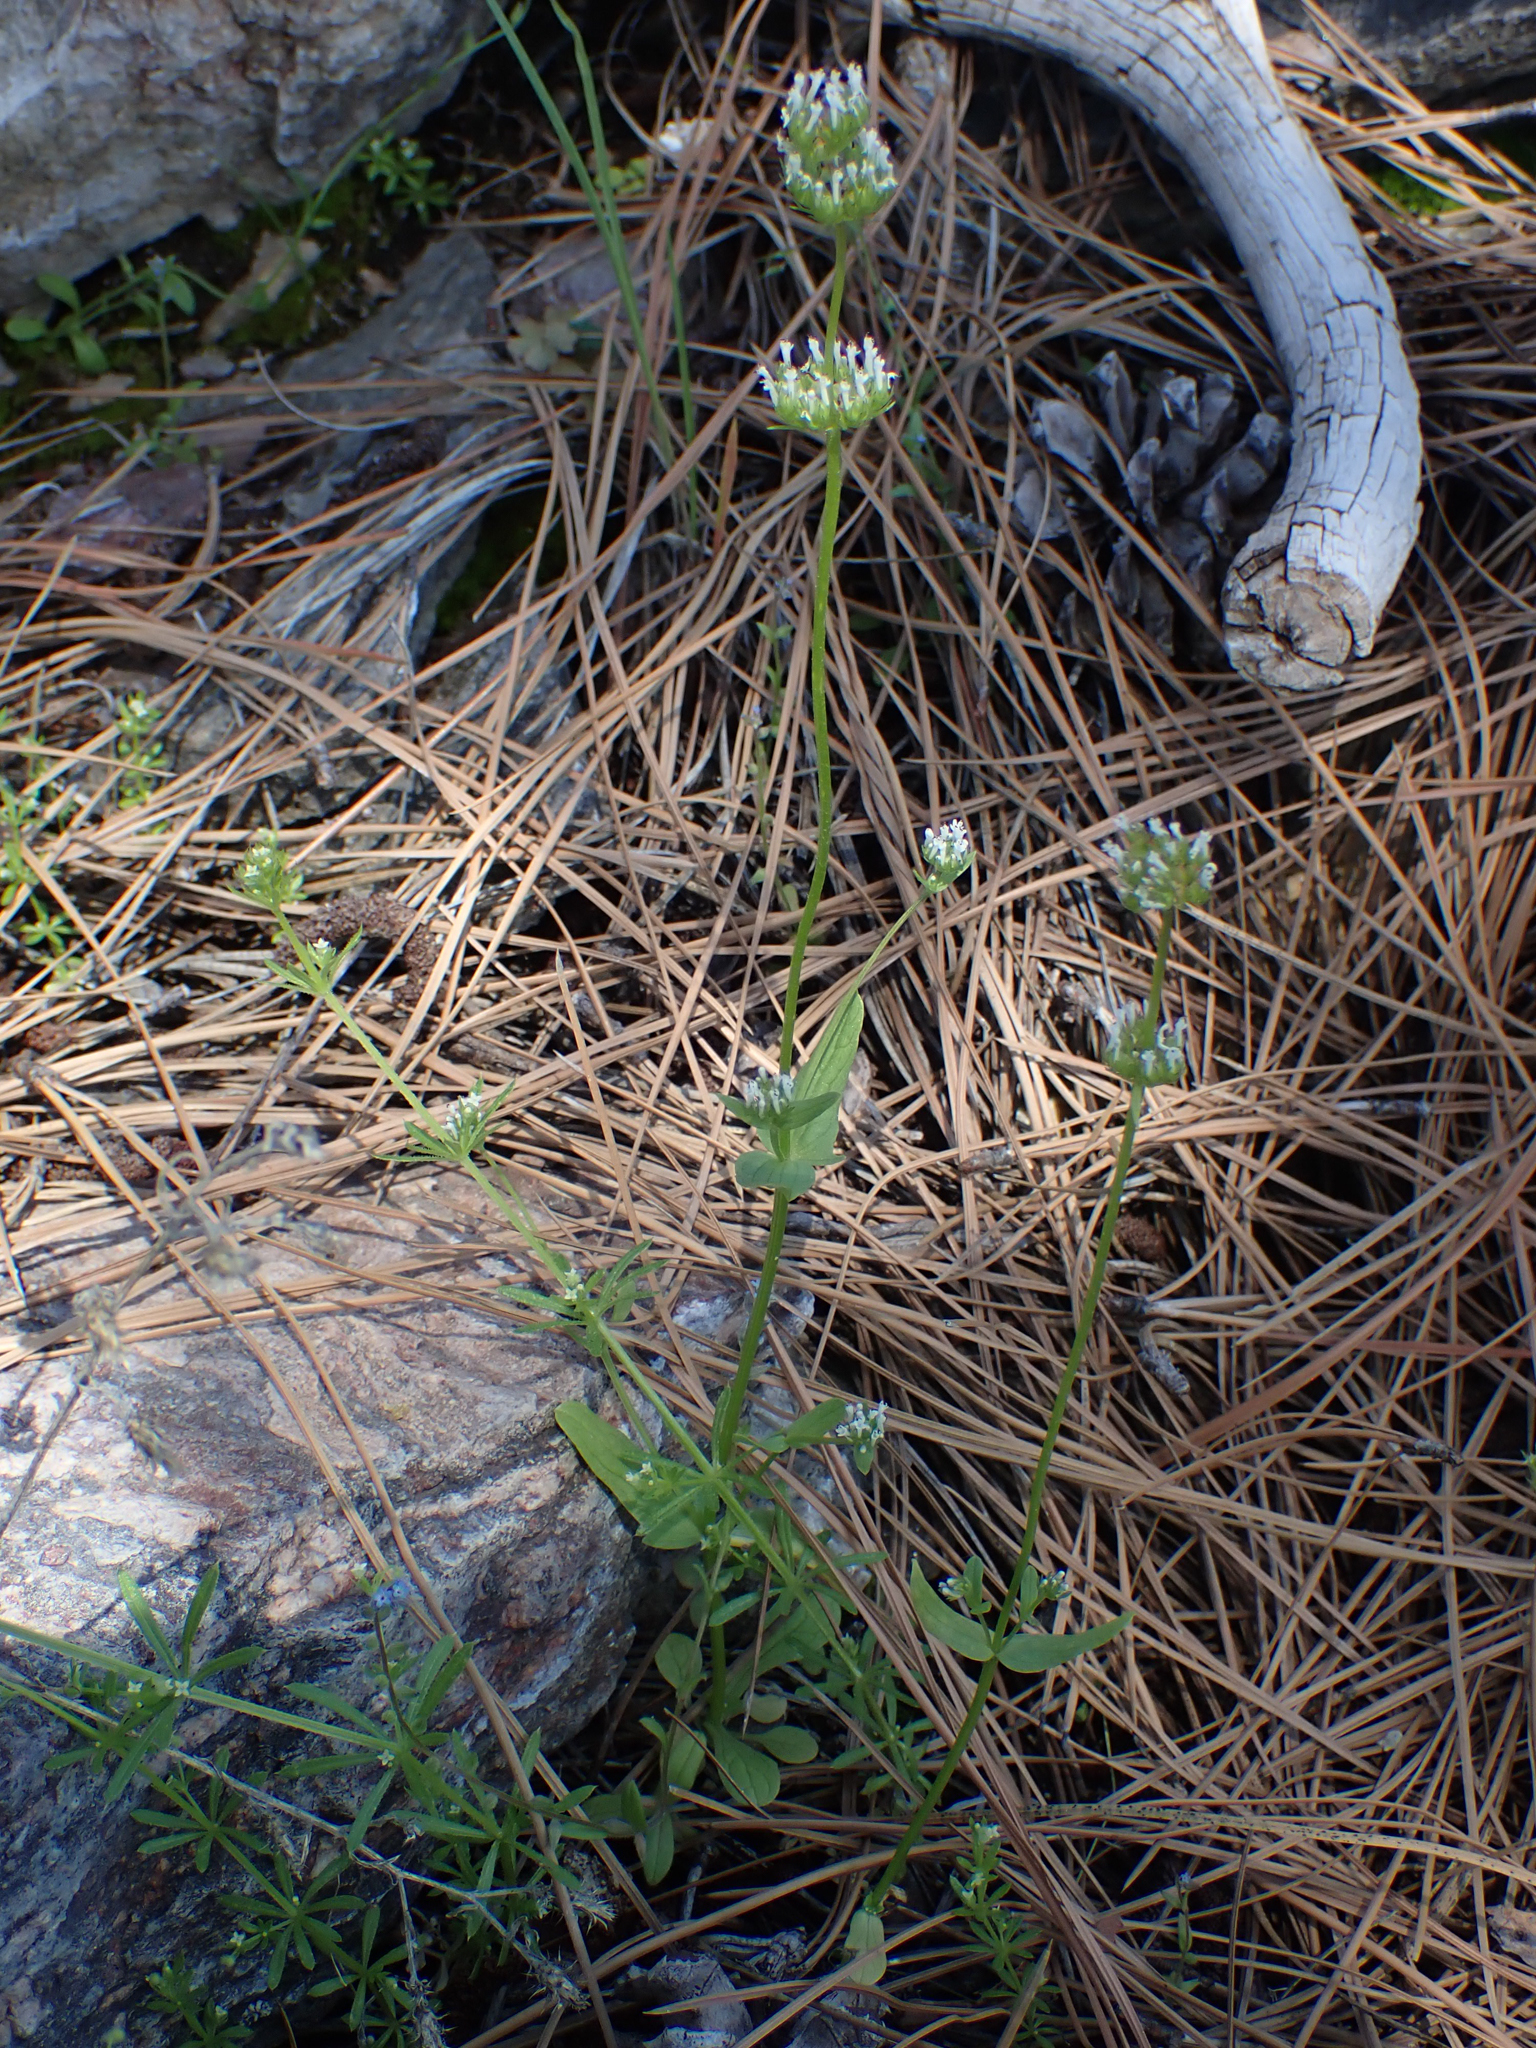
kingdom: Plantae
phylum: Tracheophyta
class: Magnoliopsida
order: Dipsacales
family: Caprifoliaceae
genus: Plectritis
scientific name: Plectritis macroptera
